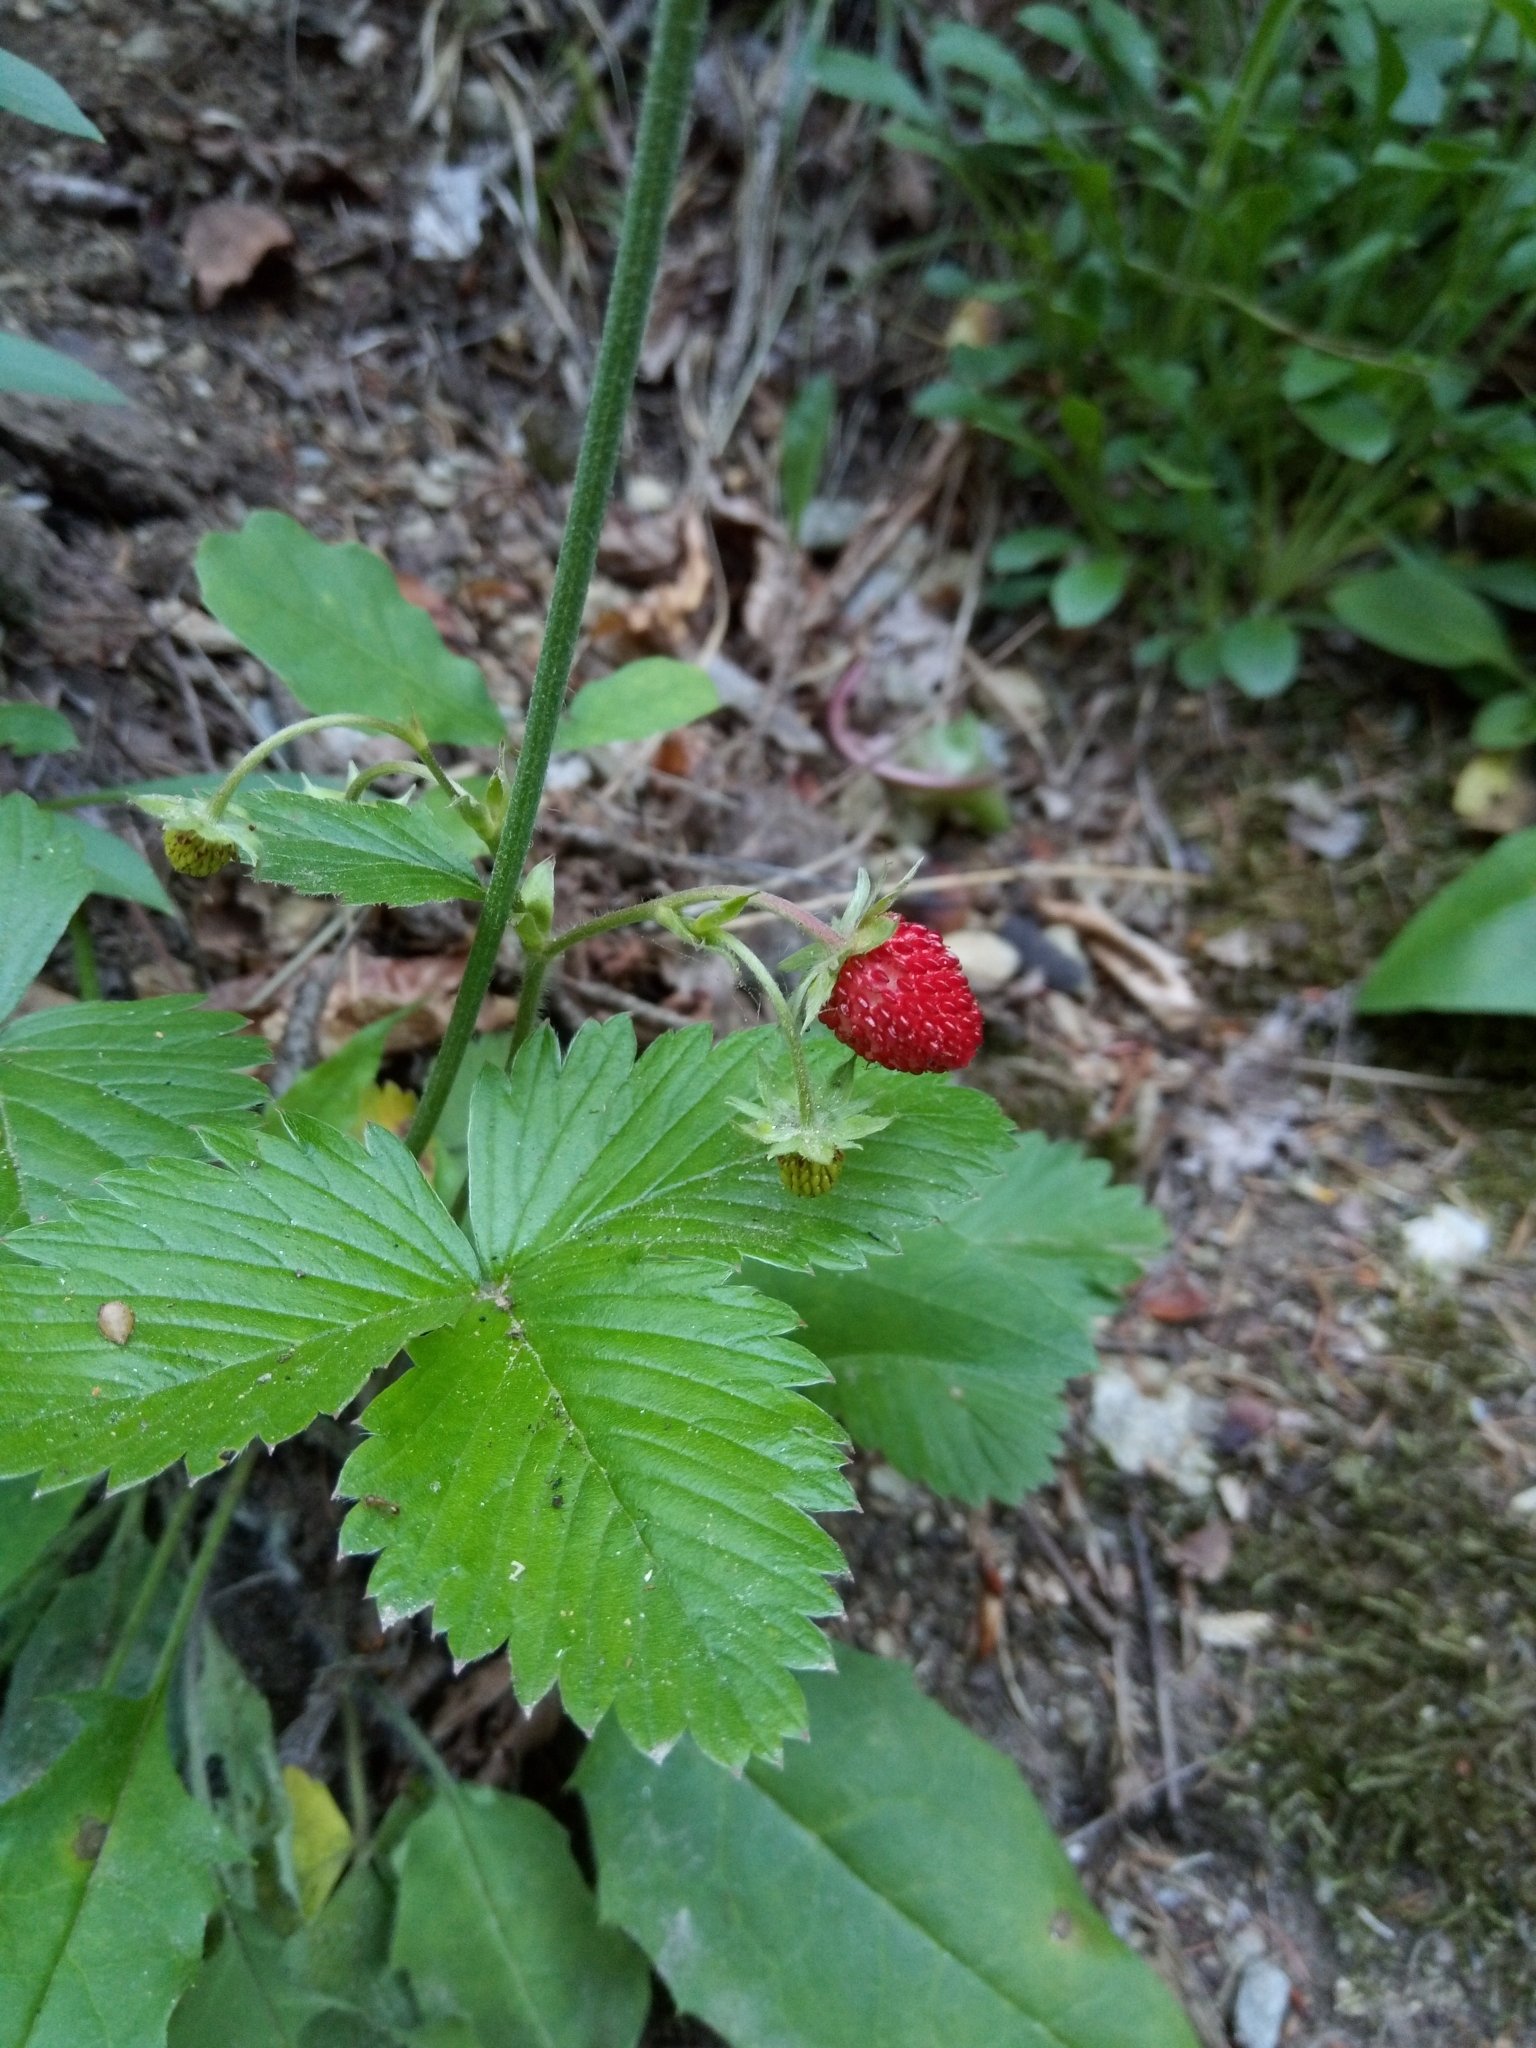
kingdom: Plantae
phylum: Tracheophyta
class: Magnoliopsida
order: Rosales
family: Rosaceae
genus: Fragaria
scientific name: Fragaria vesca
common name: Wild strawberry
